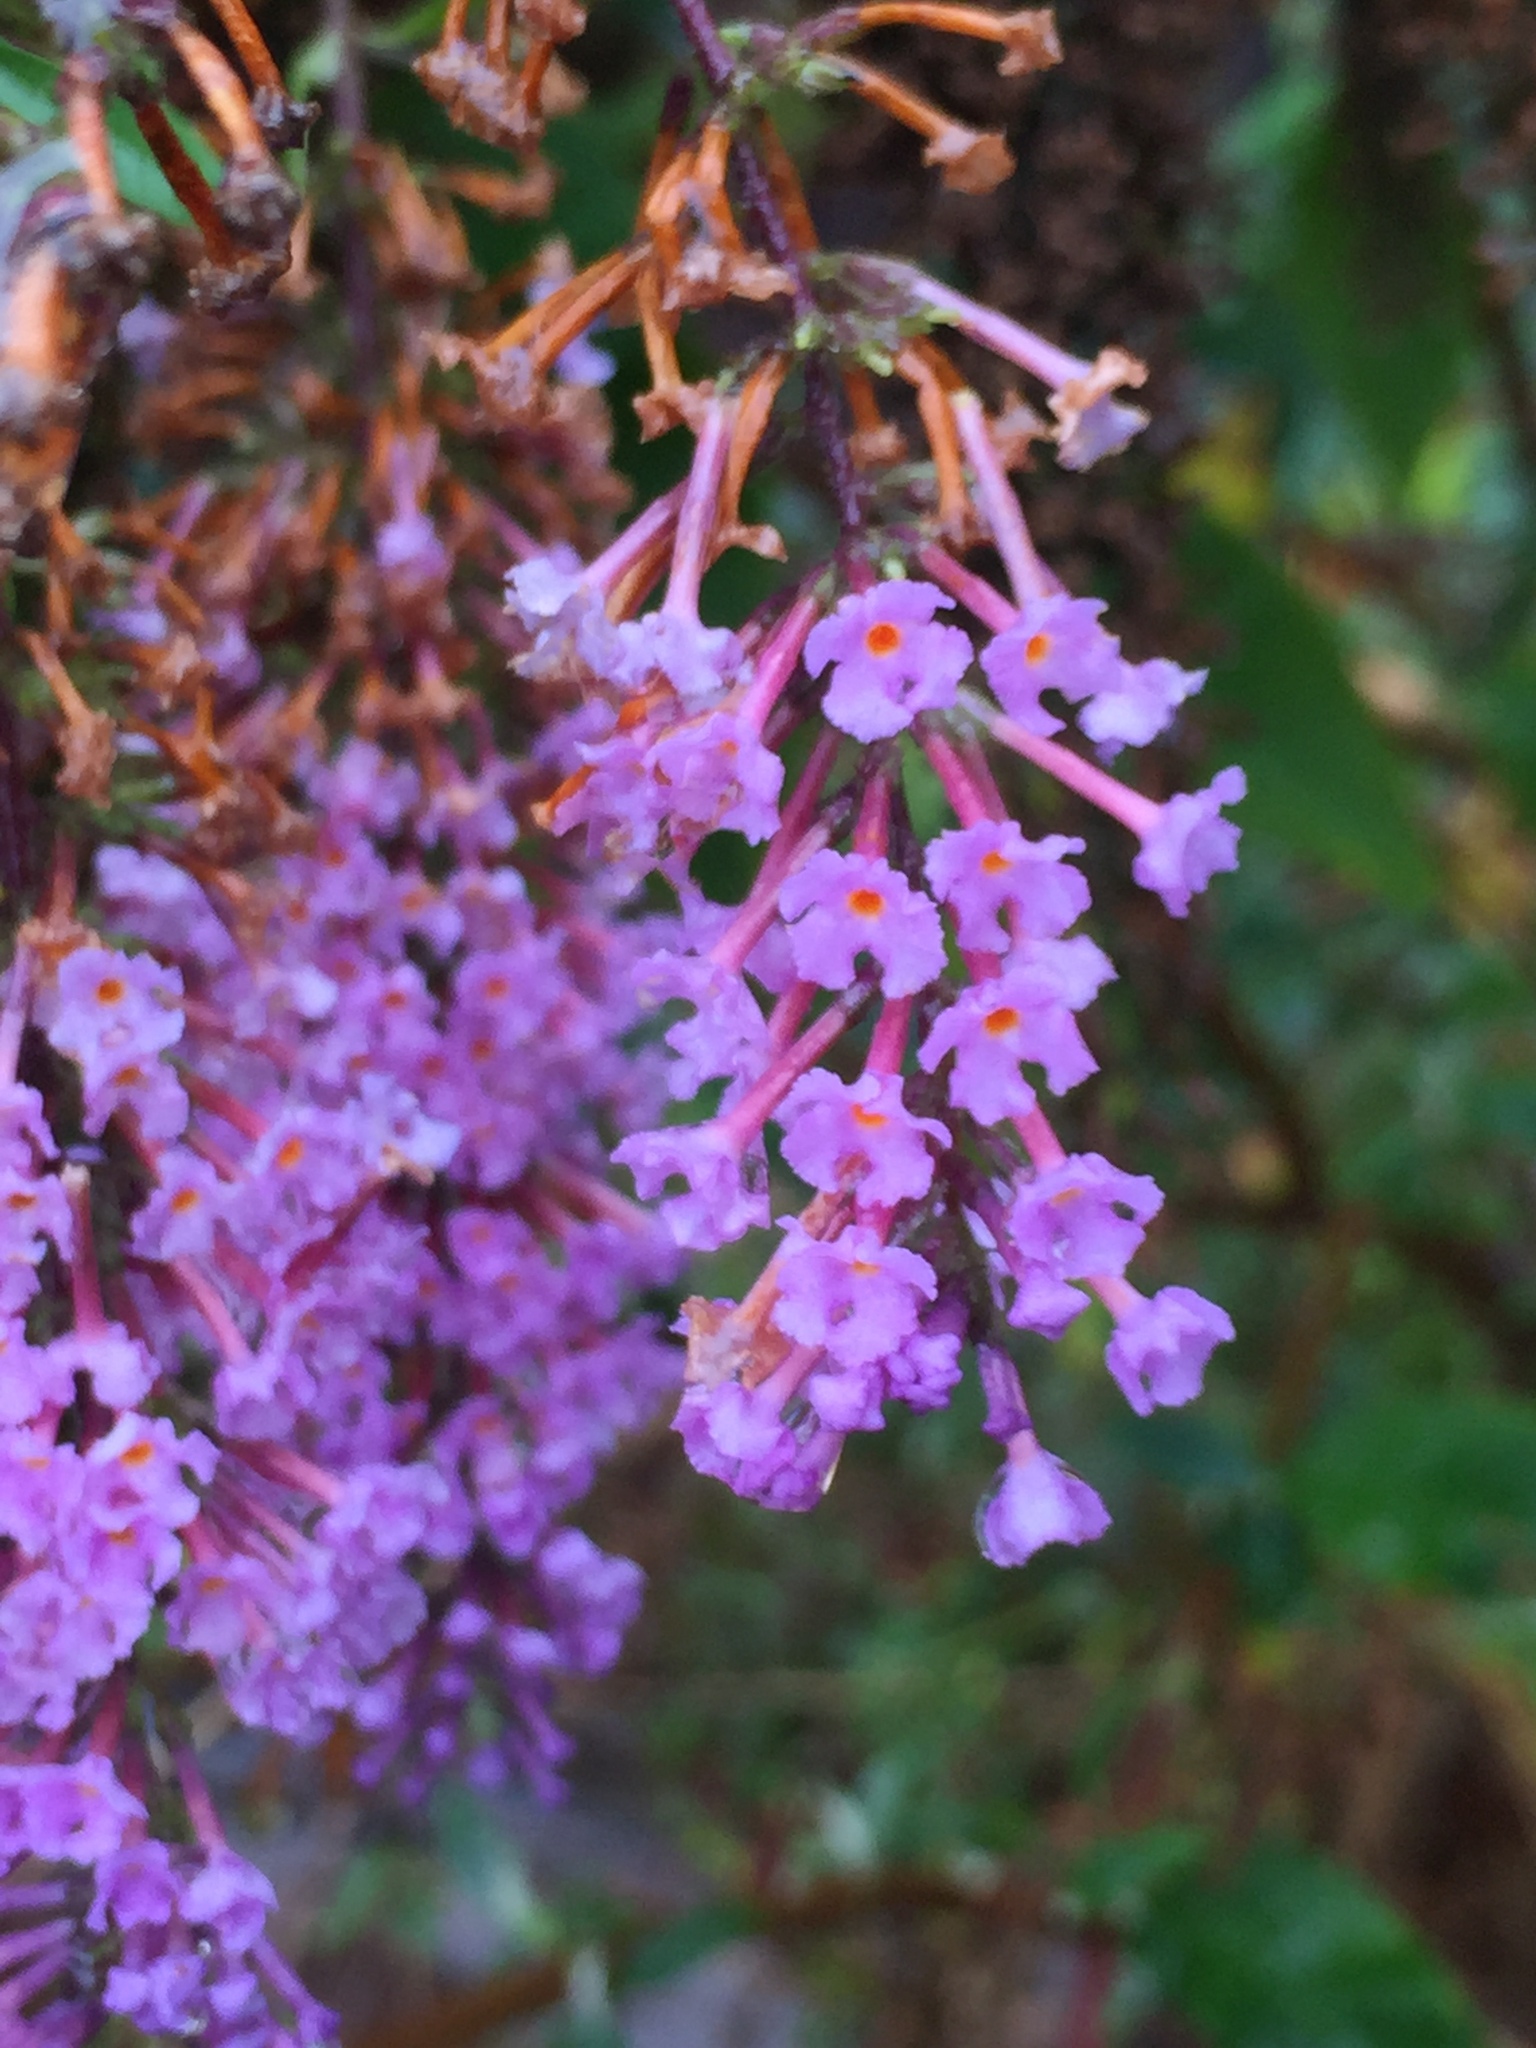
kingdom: Plantae
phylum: Tracheophyta
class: Magnoliopsida
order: Lamiales
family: Scrophulariaceae
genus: Buddleja
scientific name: Buddleja davidii
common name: Butterfly-bush
